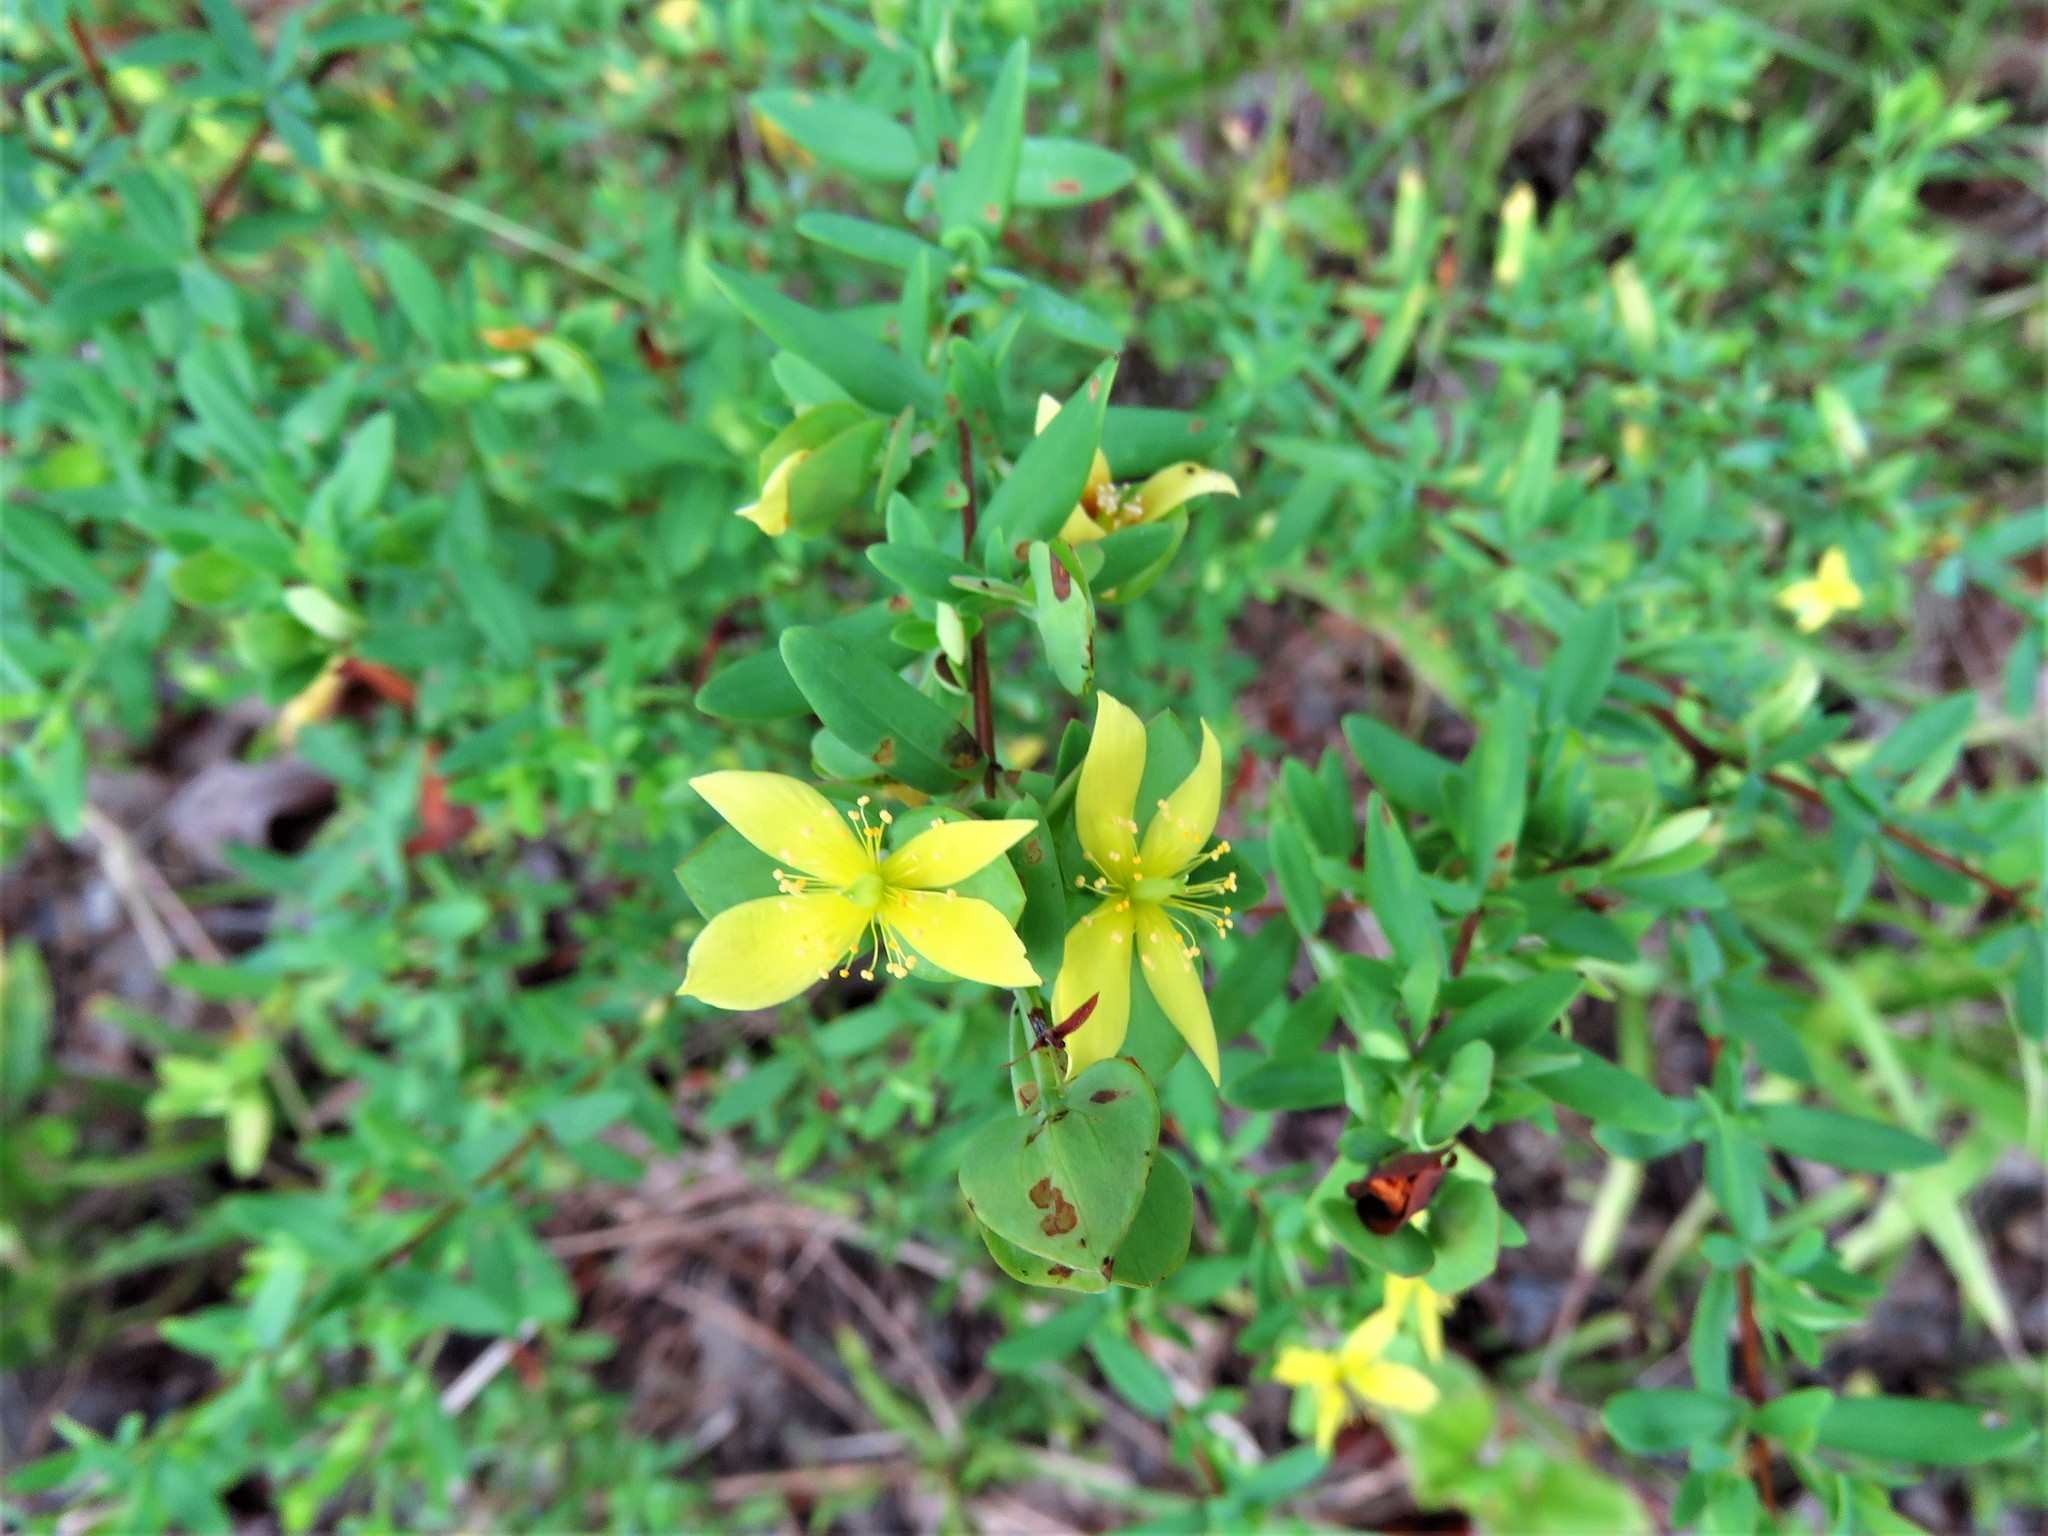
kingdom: Plantae
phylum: Tracheophyta
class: Magnoliopsida
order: Malpighiales
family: Hypericaceae
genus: Hypericum
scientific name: Hypericum hypericoides
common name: St. andrew's cross
